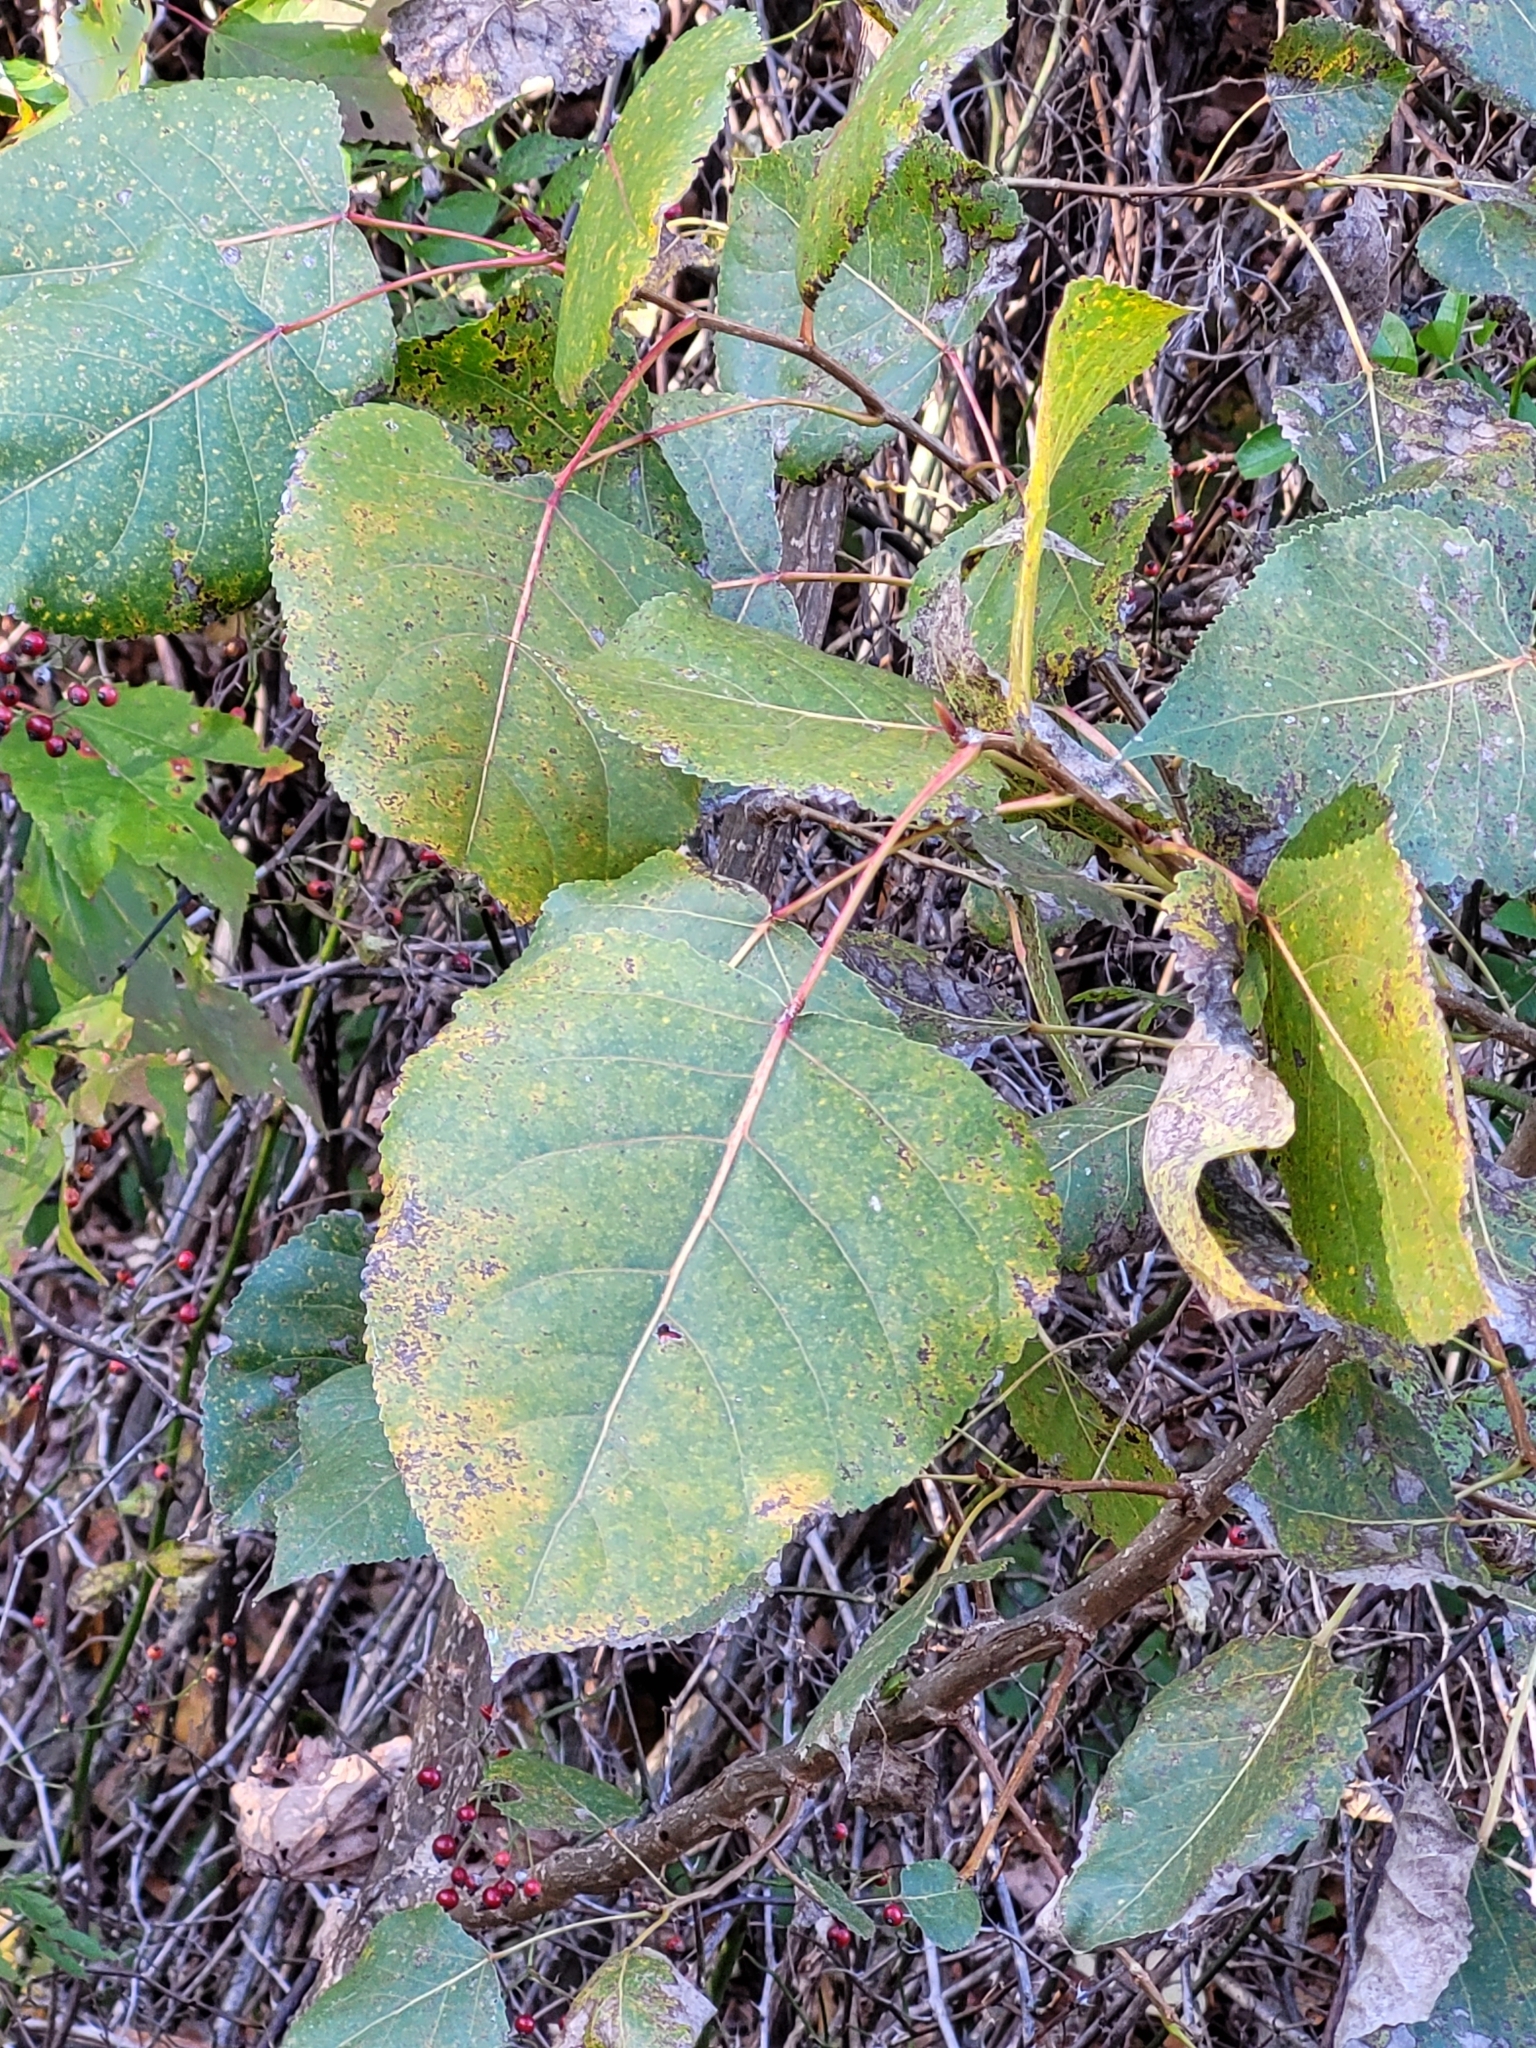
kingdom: Plantae
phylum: Tracheophyta
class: Magnoliopsida
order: Rosales
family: Ulmaceae
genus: Ulmus
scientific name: Ulmus rubra
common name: Slippery elm
